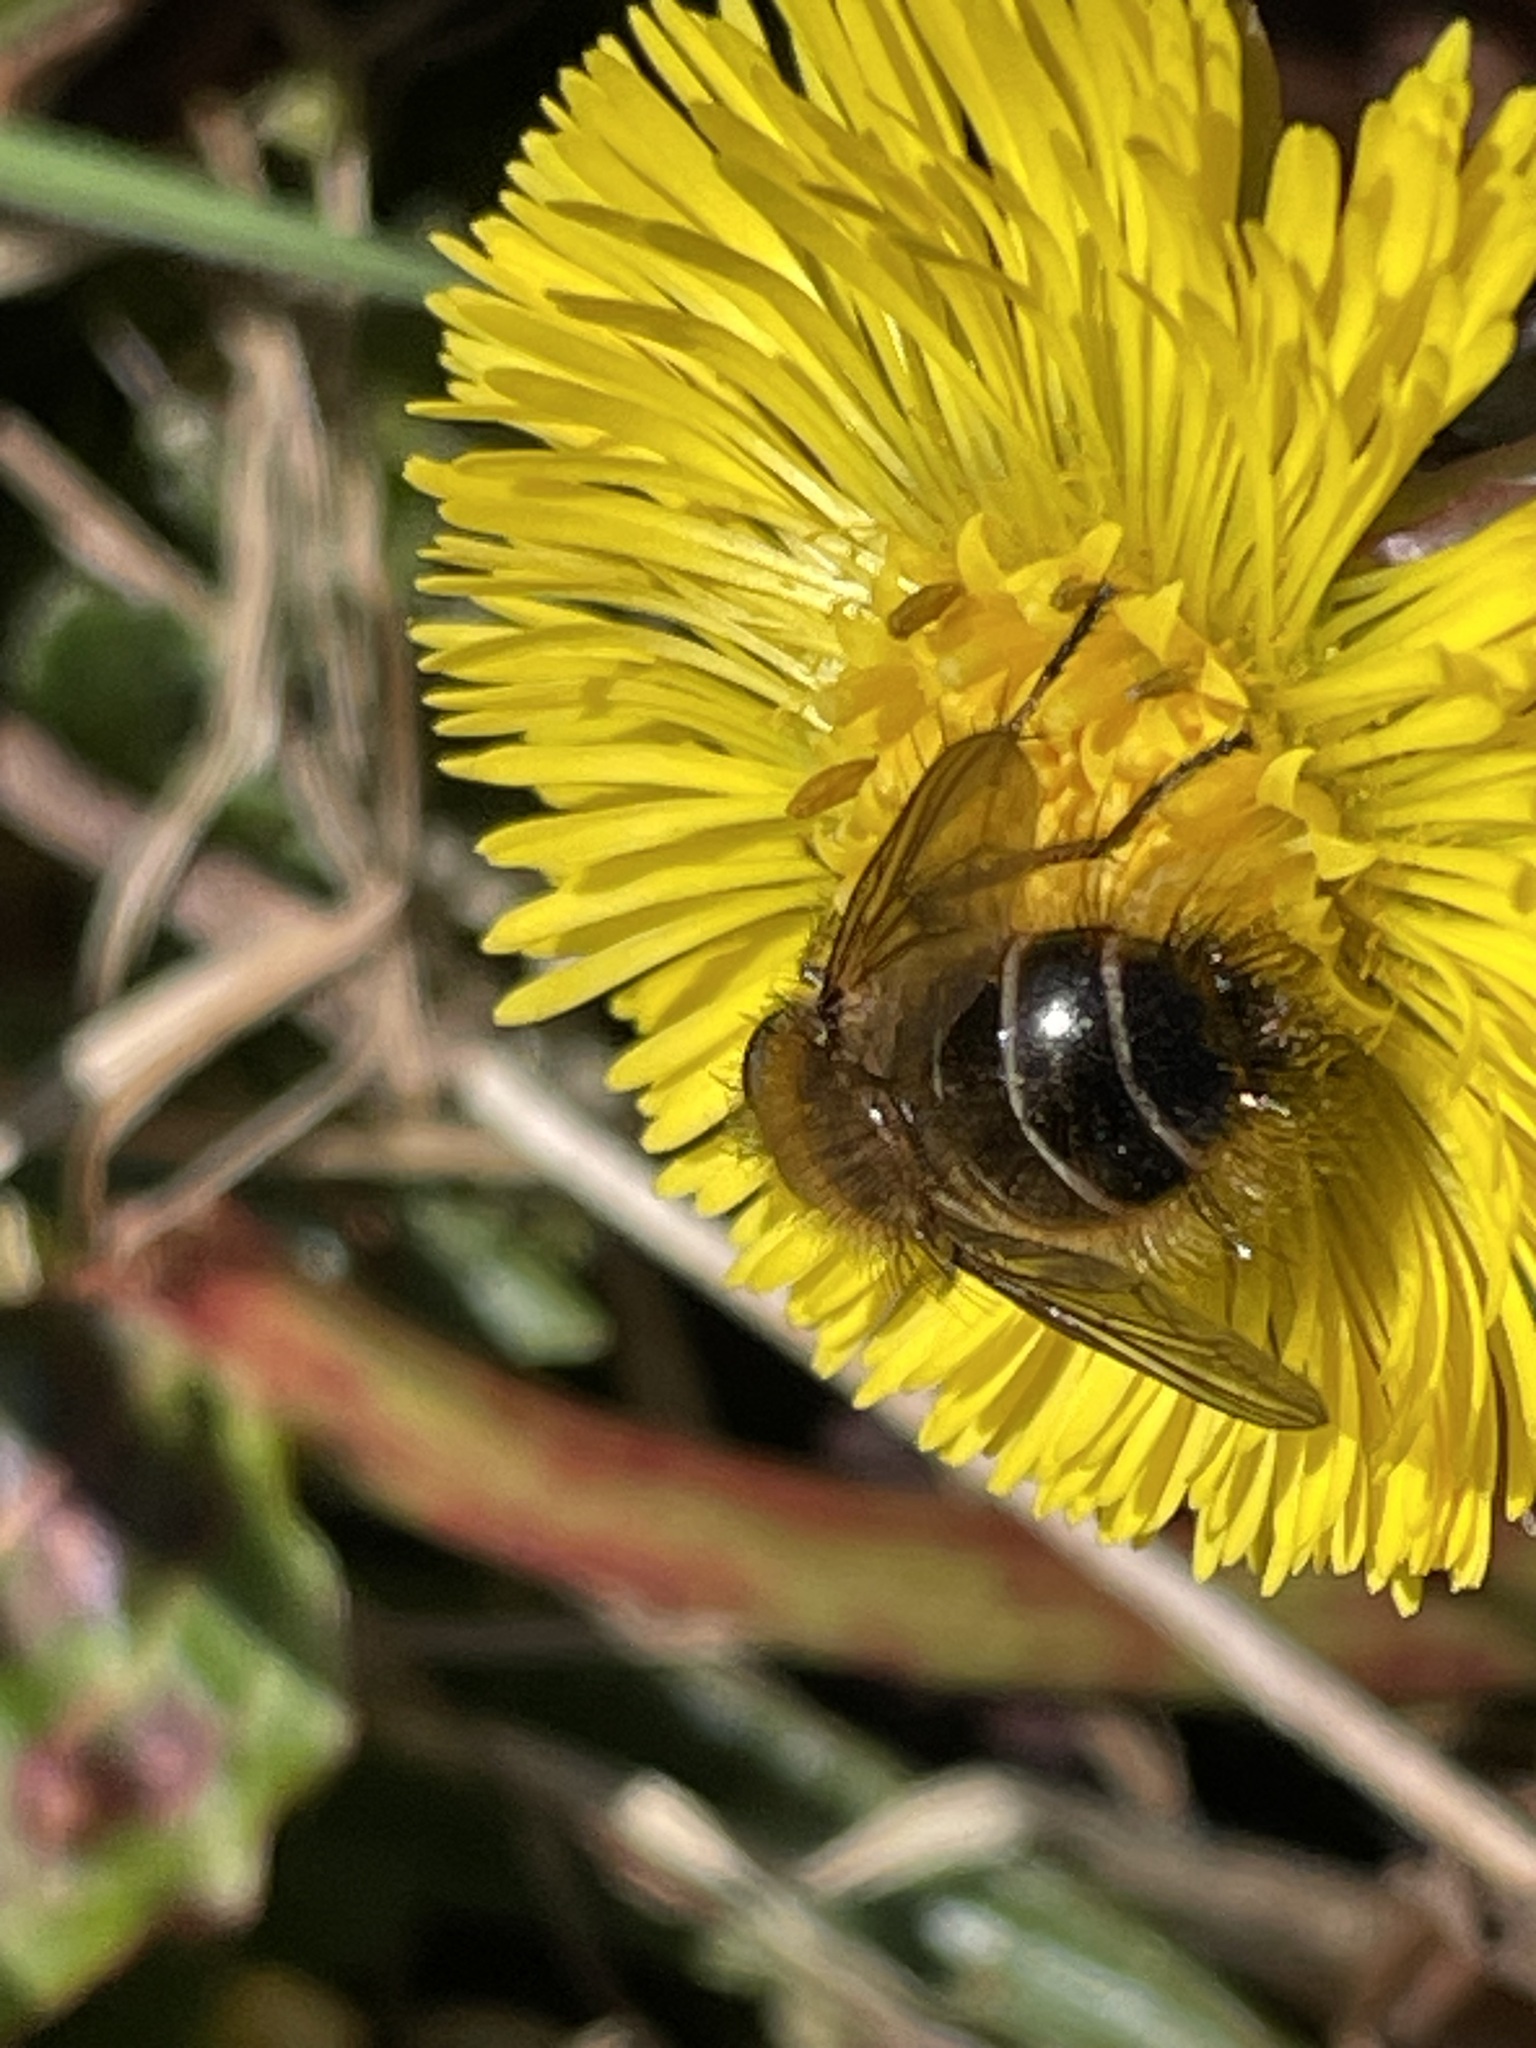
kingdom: Animalia
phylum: Arthropoda
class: Insecta
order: Diptera
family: Tachinidae
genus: Tachina
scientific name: Tachina ursina
